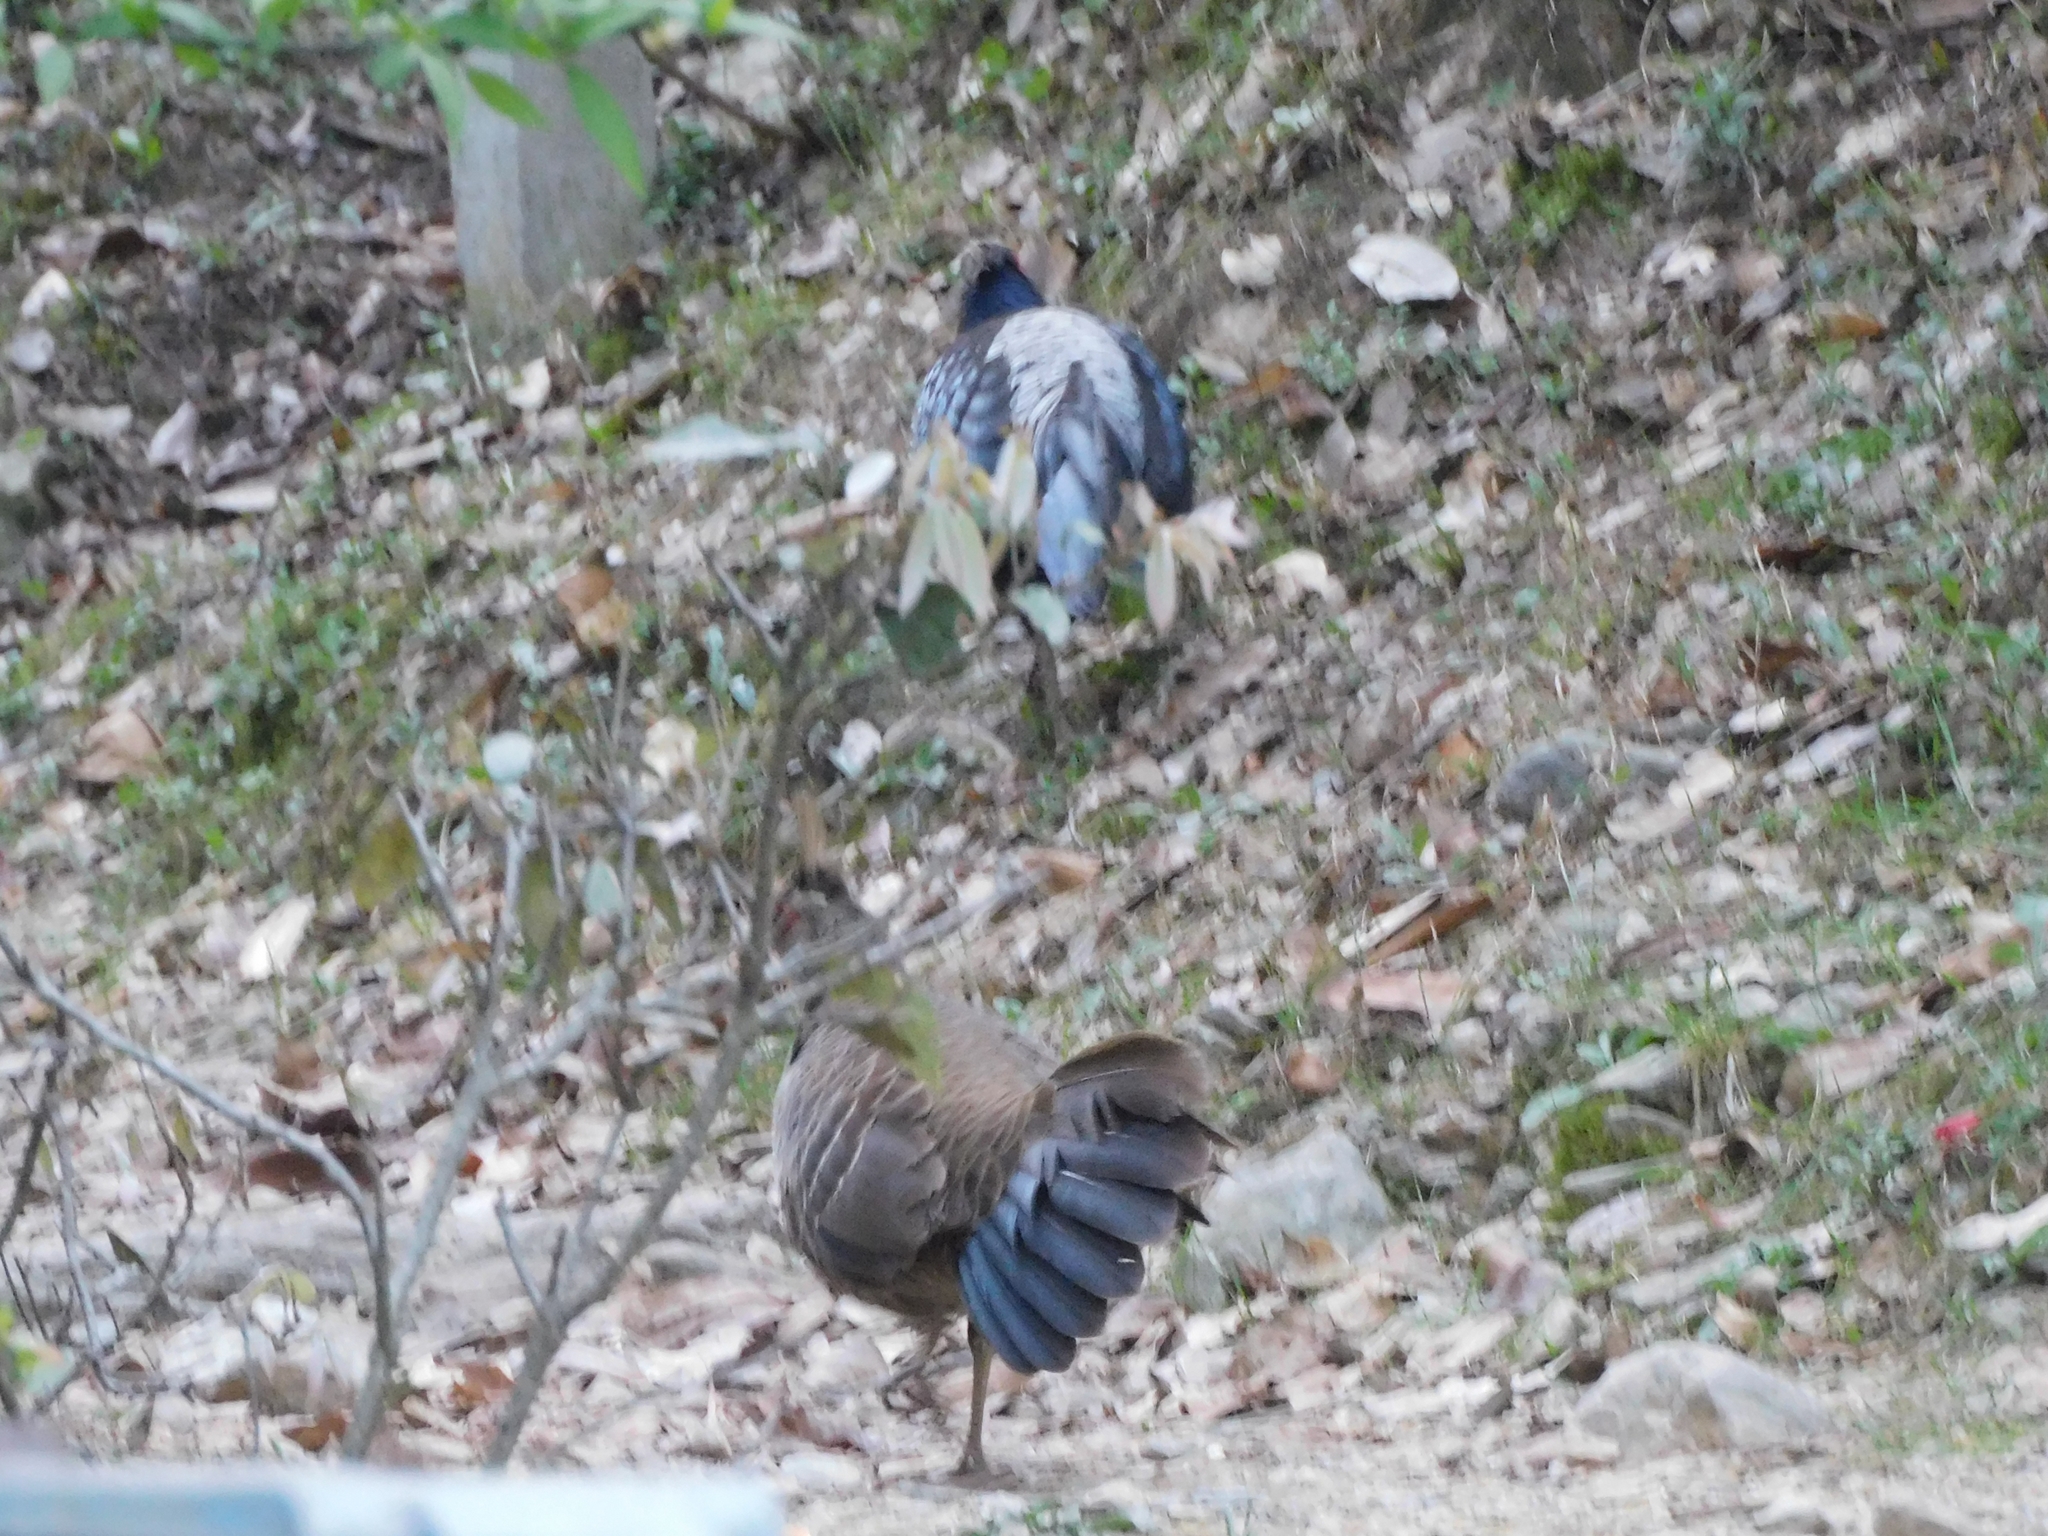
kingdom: Animalia
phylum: Chordata
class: Aves
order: Galliformes
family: Phasianidae
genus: Lophura
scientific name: Lophura leucomelanos
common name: Kalij pheasant
